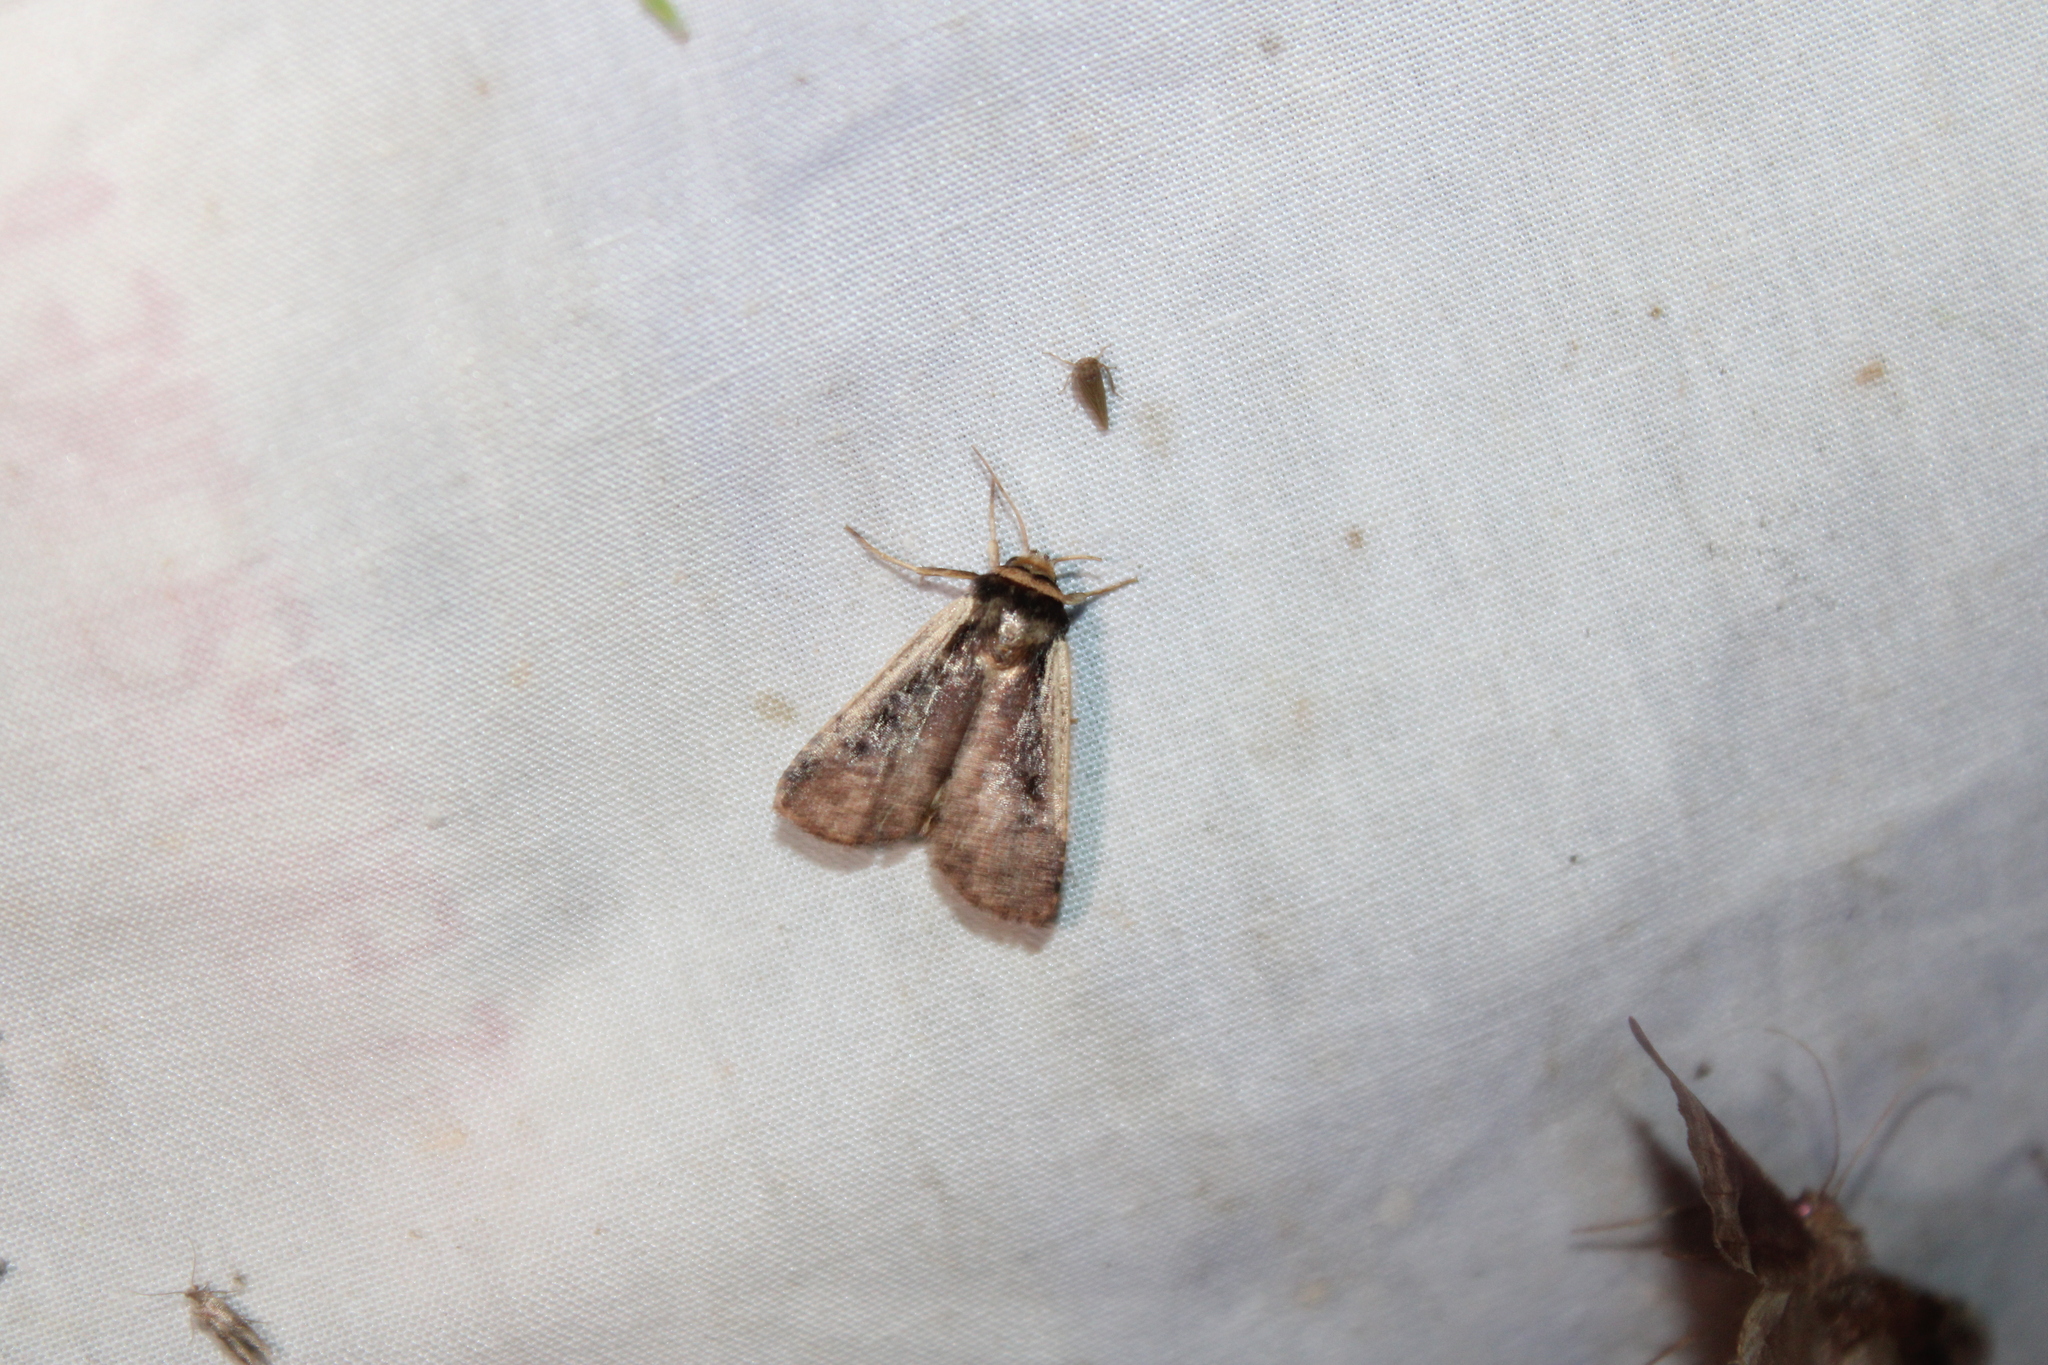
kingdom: Animalia
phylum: Arthropoda
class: Insecta
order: Lepidoptera
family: Noctuidae
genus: Ochropleura
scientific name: Ochropleura implecta
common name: Flame-shouldered dart
